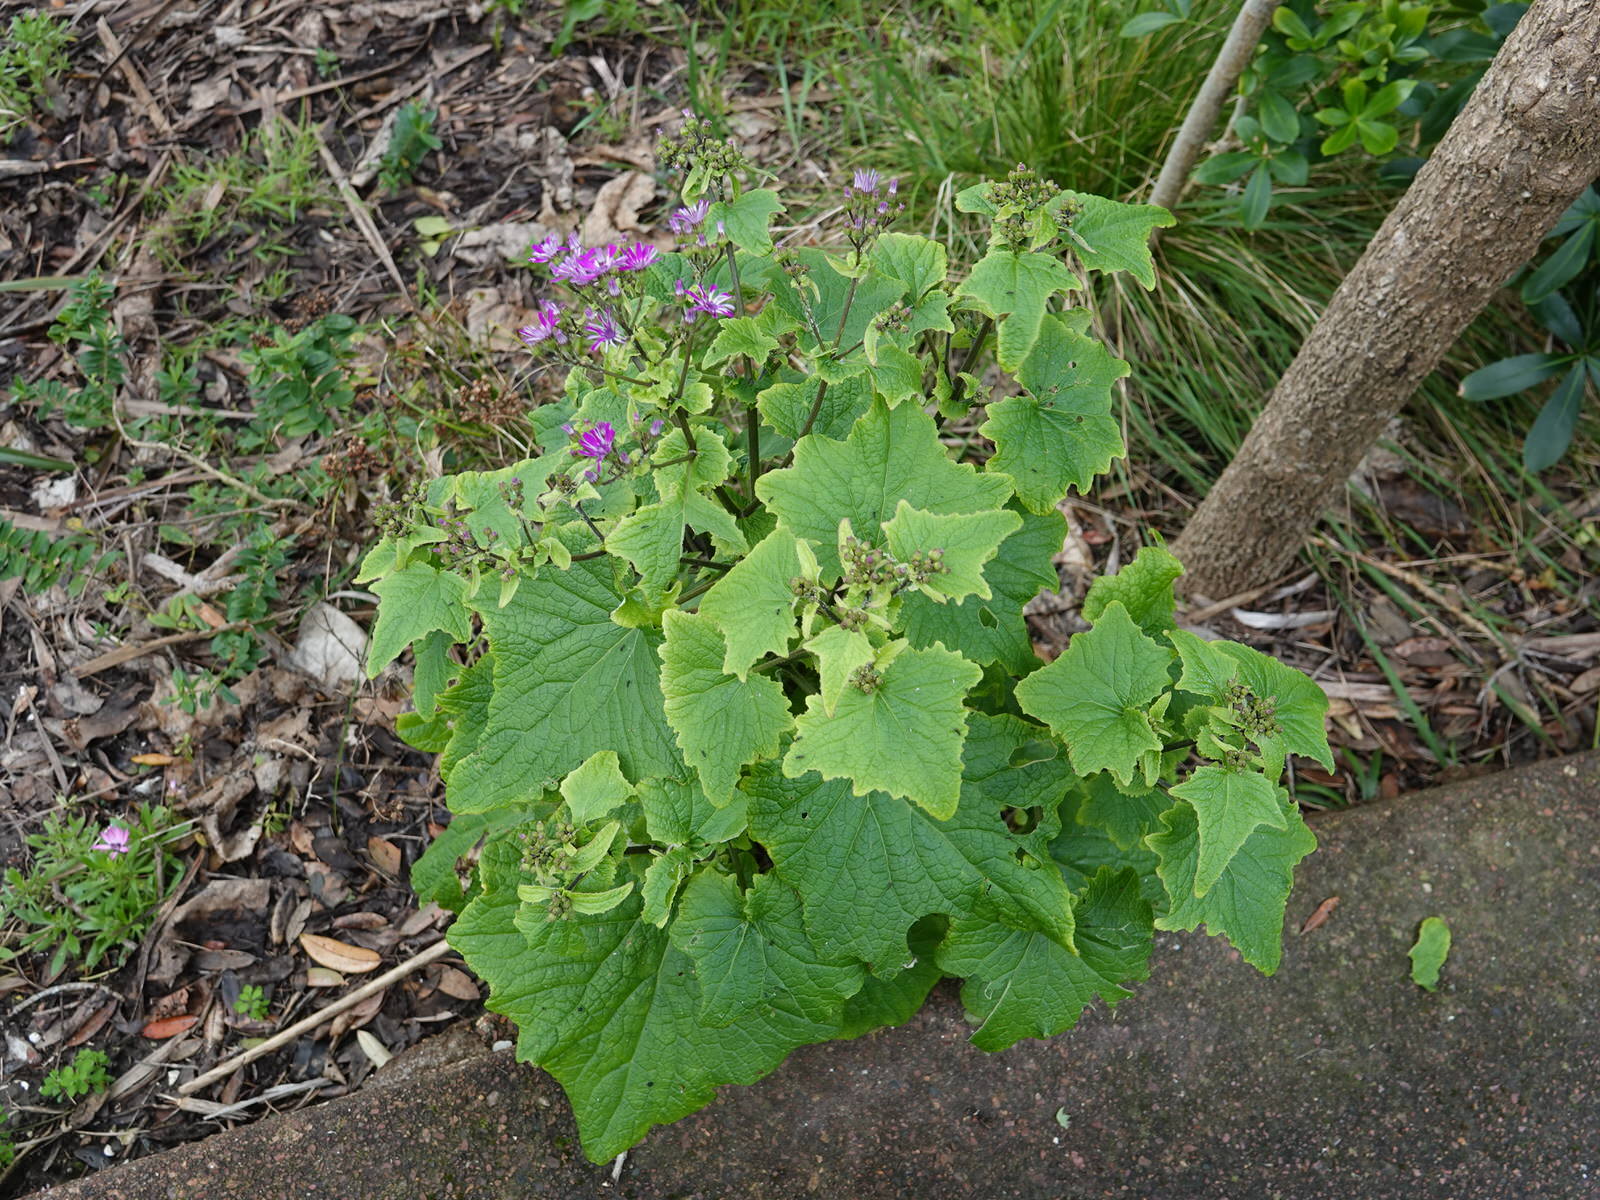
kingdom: Plantae
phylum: Tracheophyta
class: Magnoliopsida
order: Asterales
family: Asteraceae
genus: Pericallis
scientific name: Pericallis hybrida
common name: Cineraria
